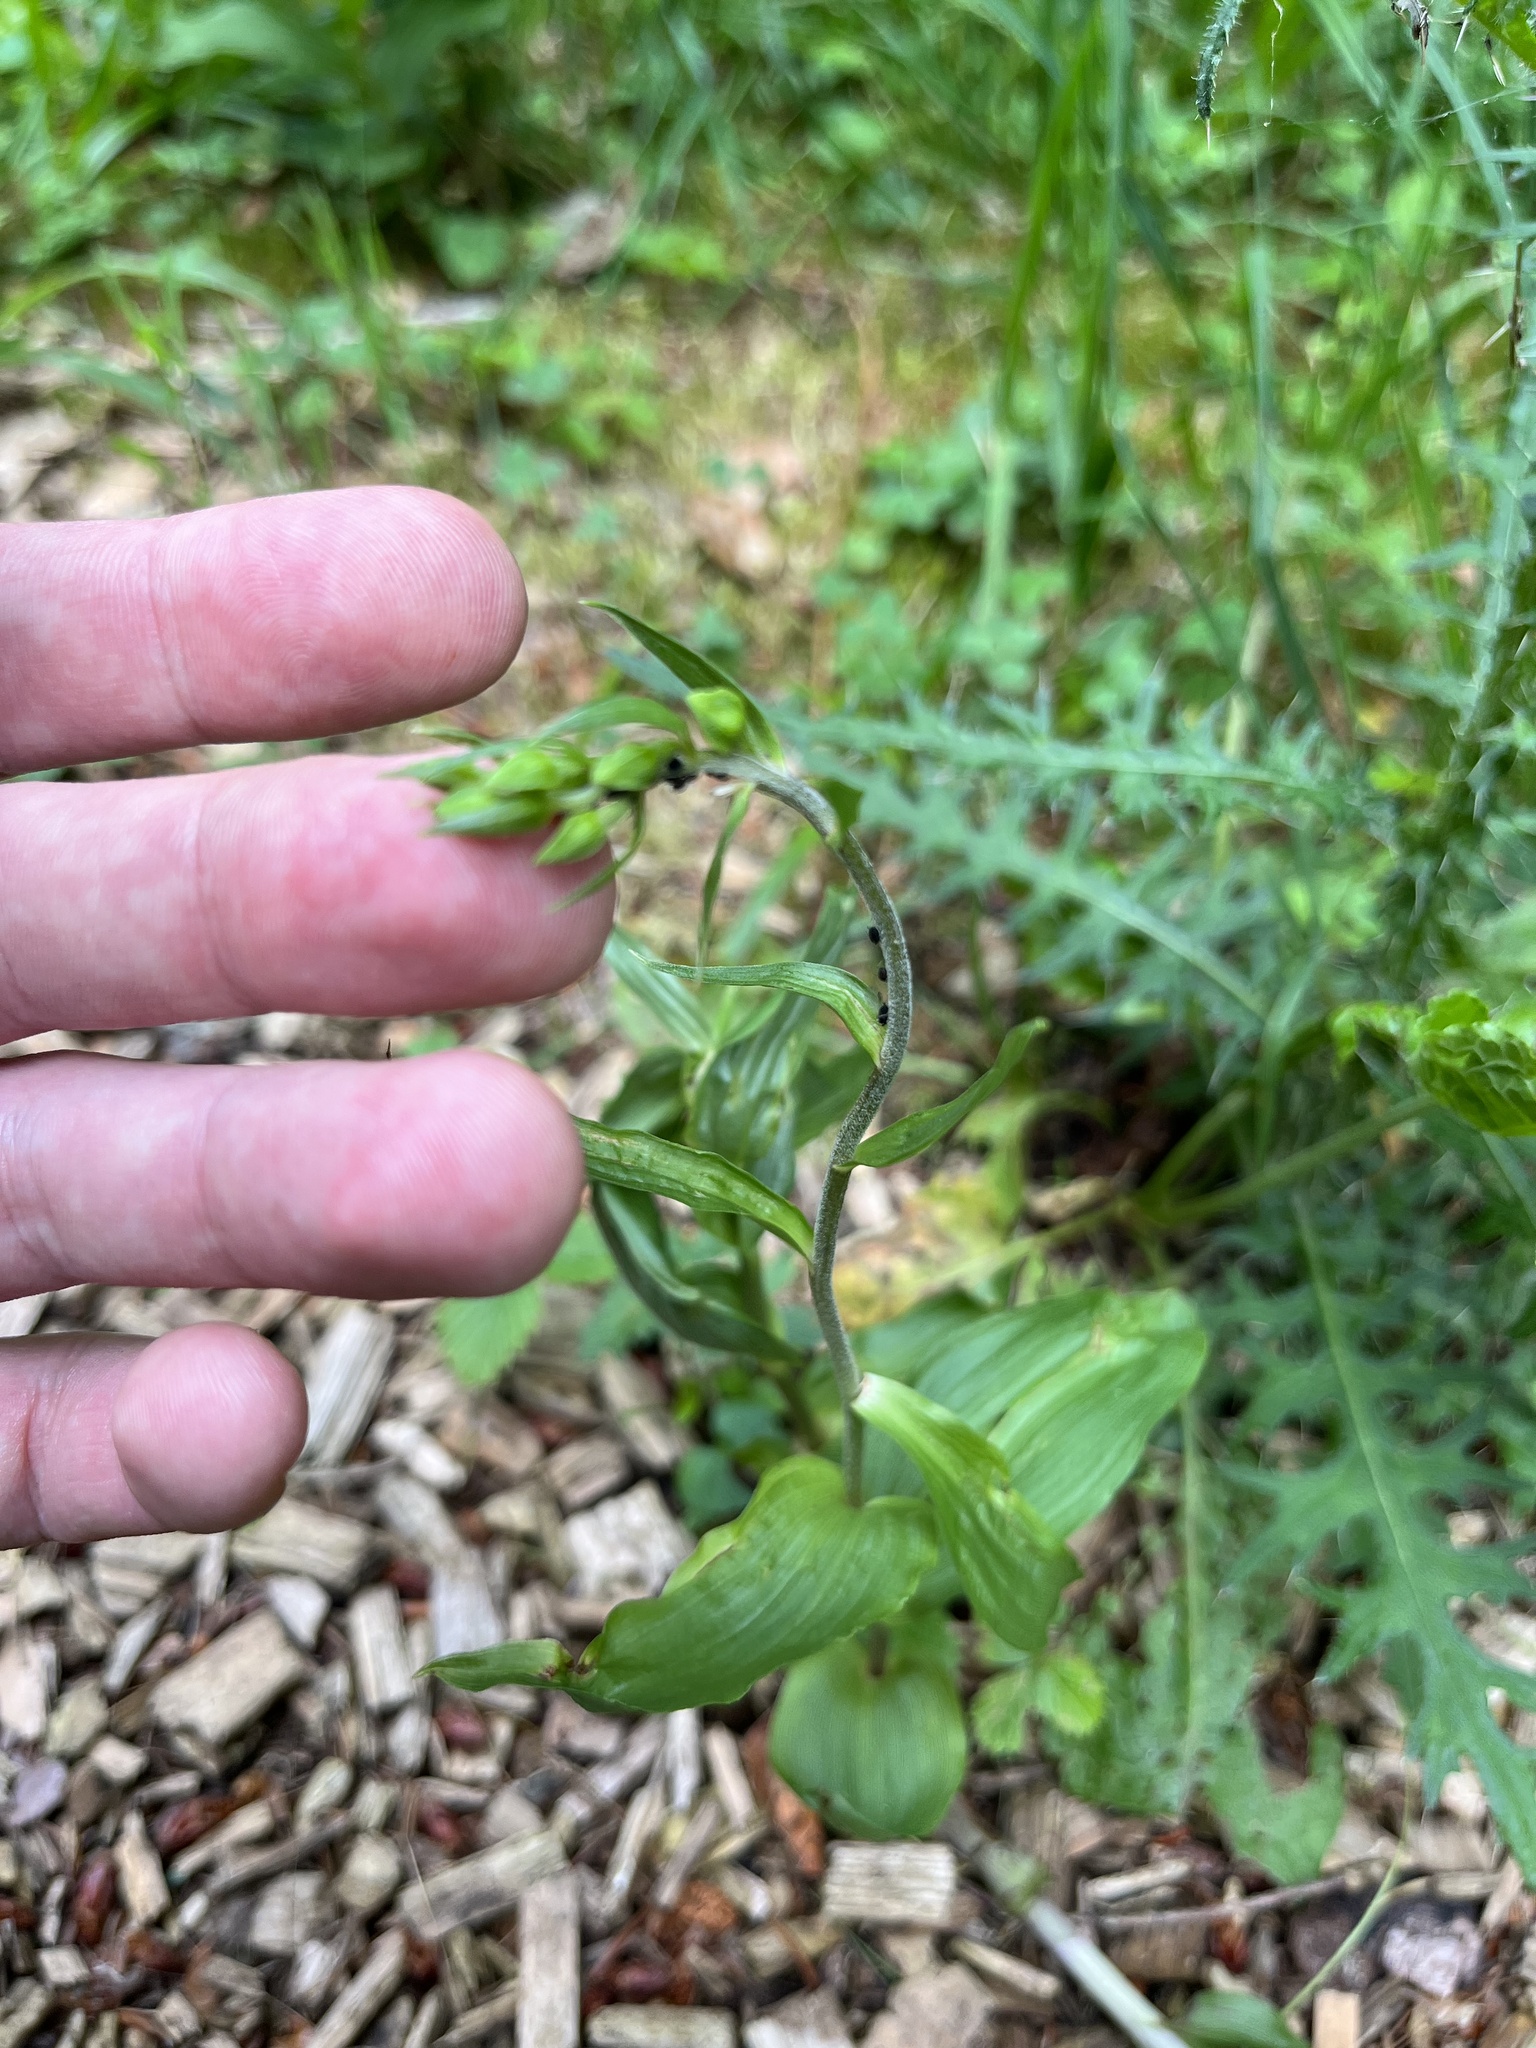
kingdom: Plantae
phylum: Tracheophyta
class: Liliopsida
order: Asparagales
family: Orchidaceae
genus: Epipactis
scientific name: Epipactis helleborine
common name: Broad-leaved helleborine
